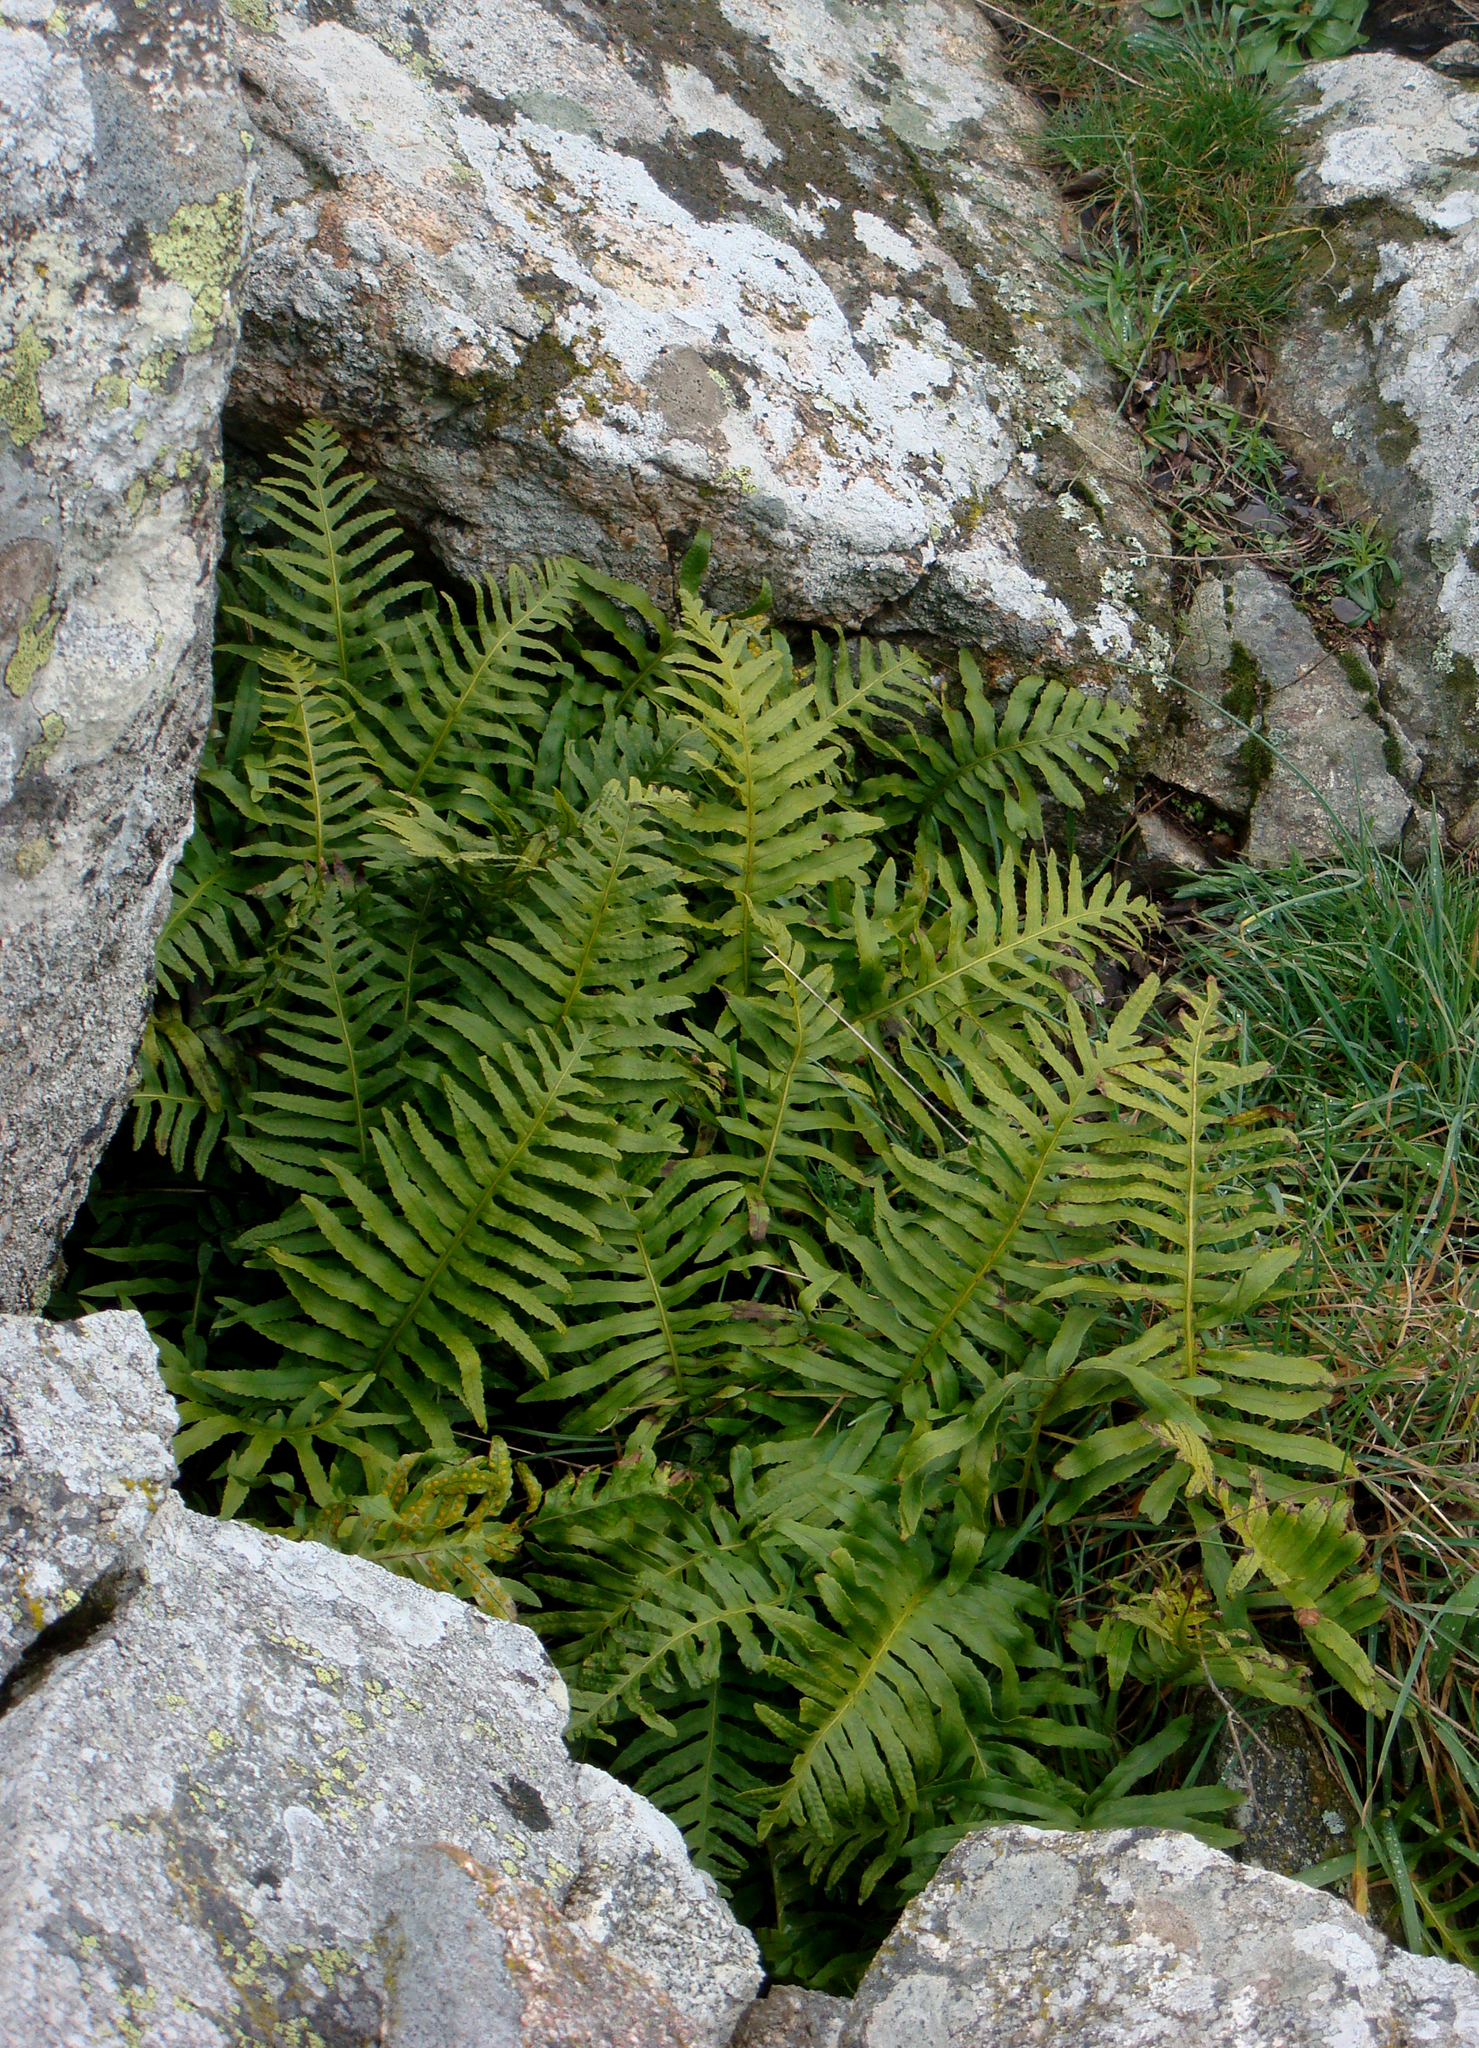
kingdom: Plantae
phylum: Tracheophyta
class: Polypodiopsida
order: Polypodiales
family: Polypodiaceae
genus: Polypodium
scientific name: Polypodium cambricum
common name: Southern polypody
